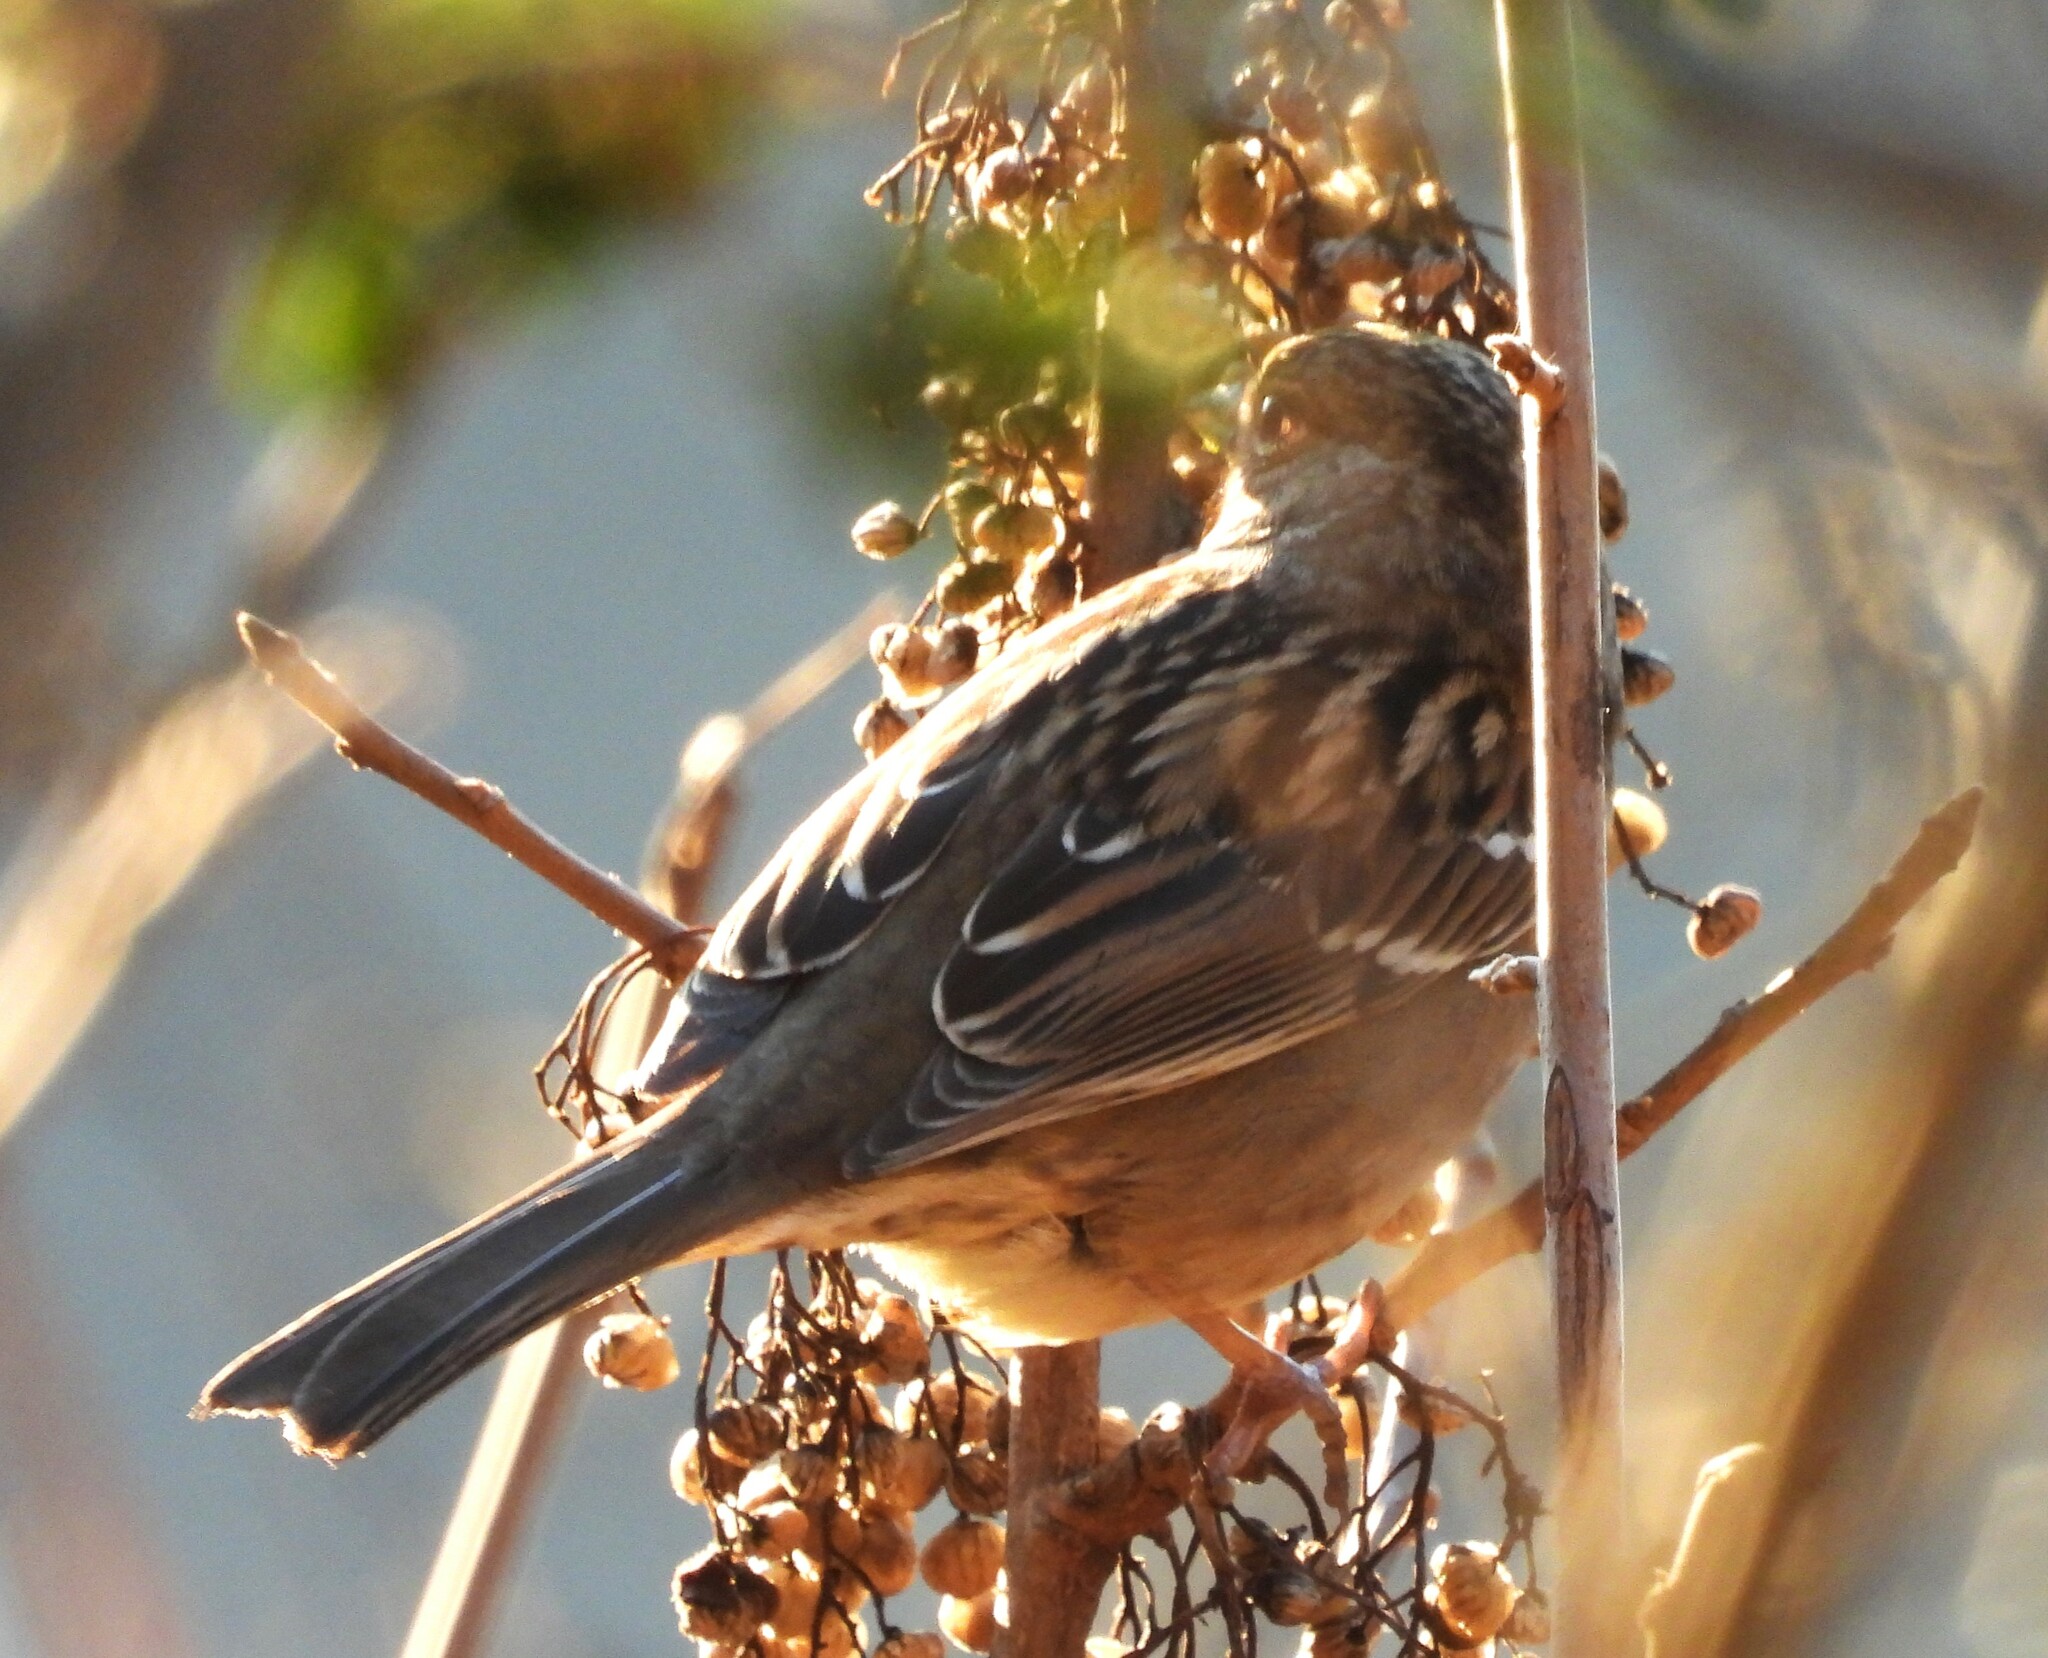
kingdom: Animalia
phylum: Chordata
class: Aves
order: Passeriformes
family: Passerellidae
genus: Zonotrichia
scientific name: Zonotrichia atricapilla
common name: Golden-crowned sparrow
